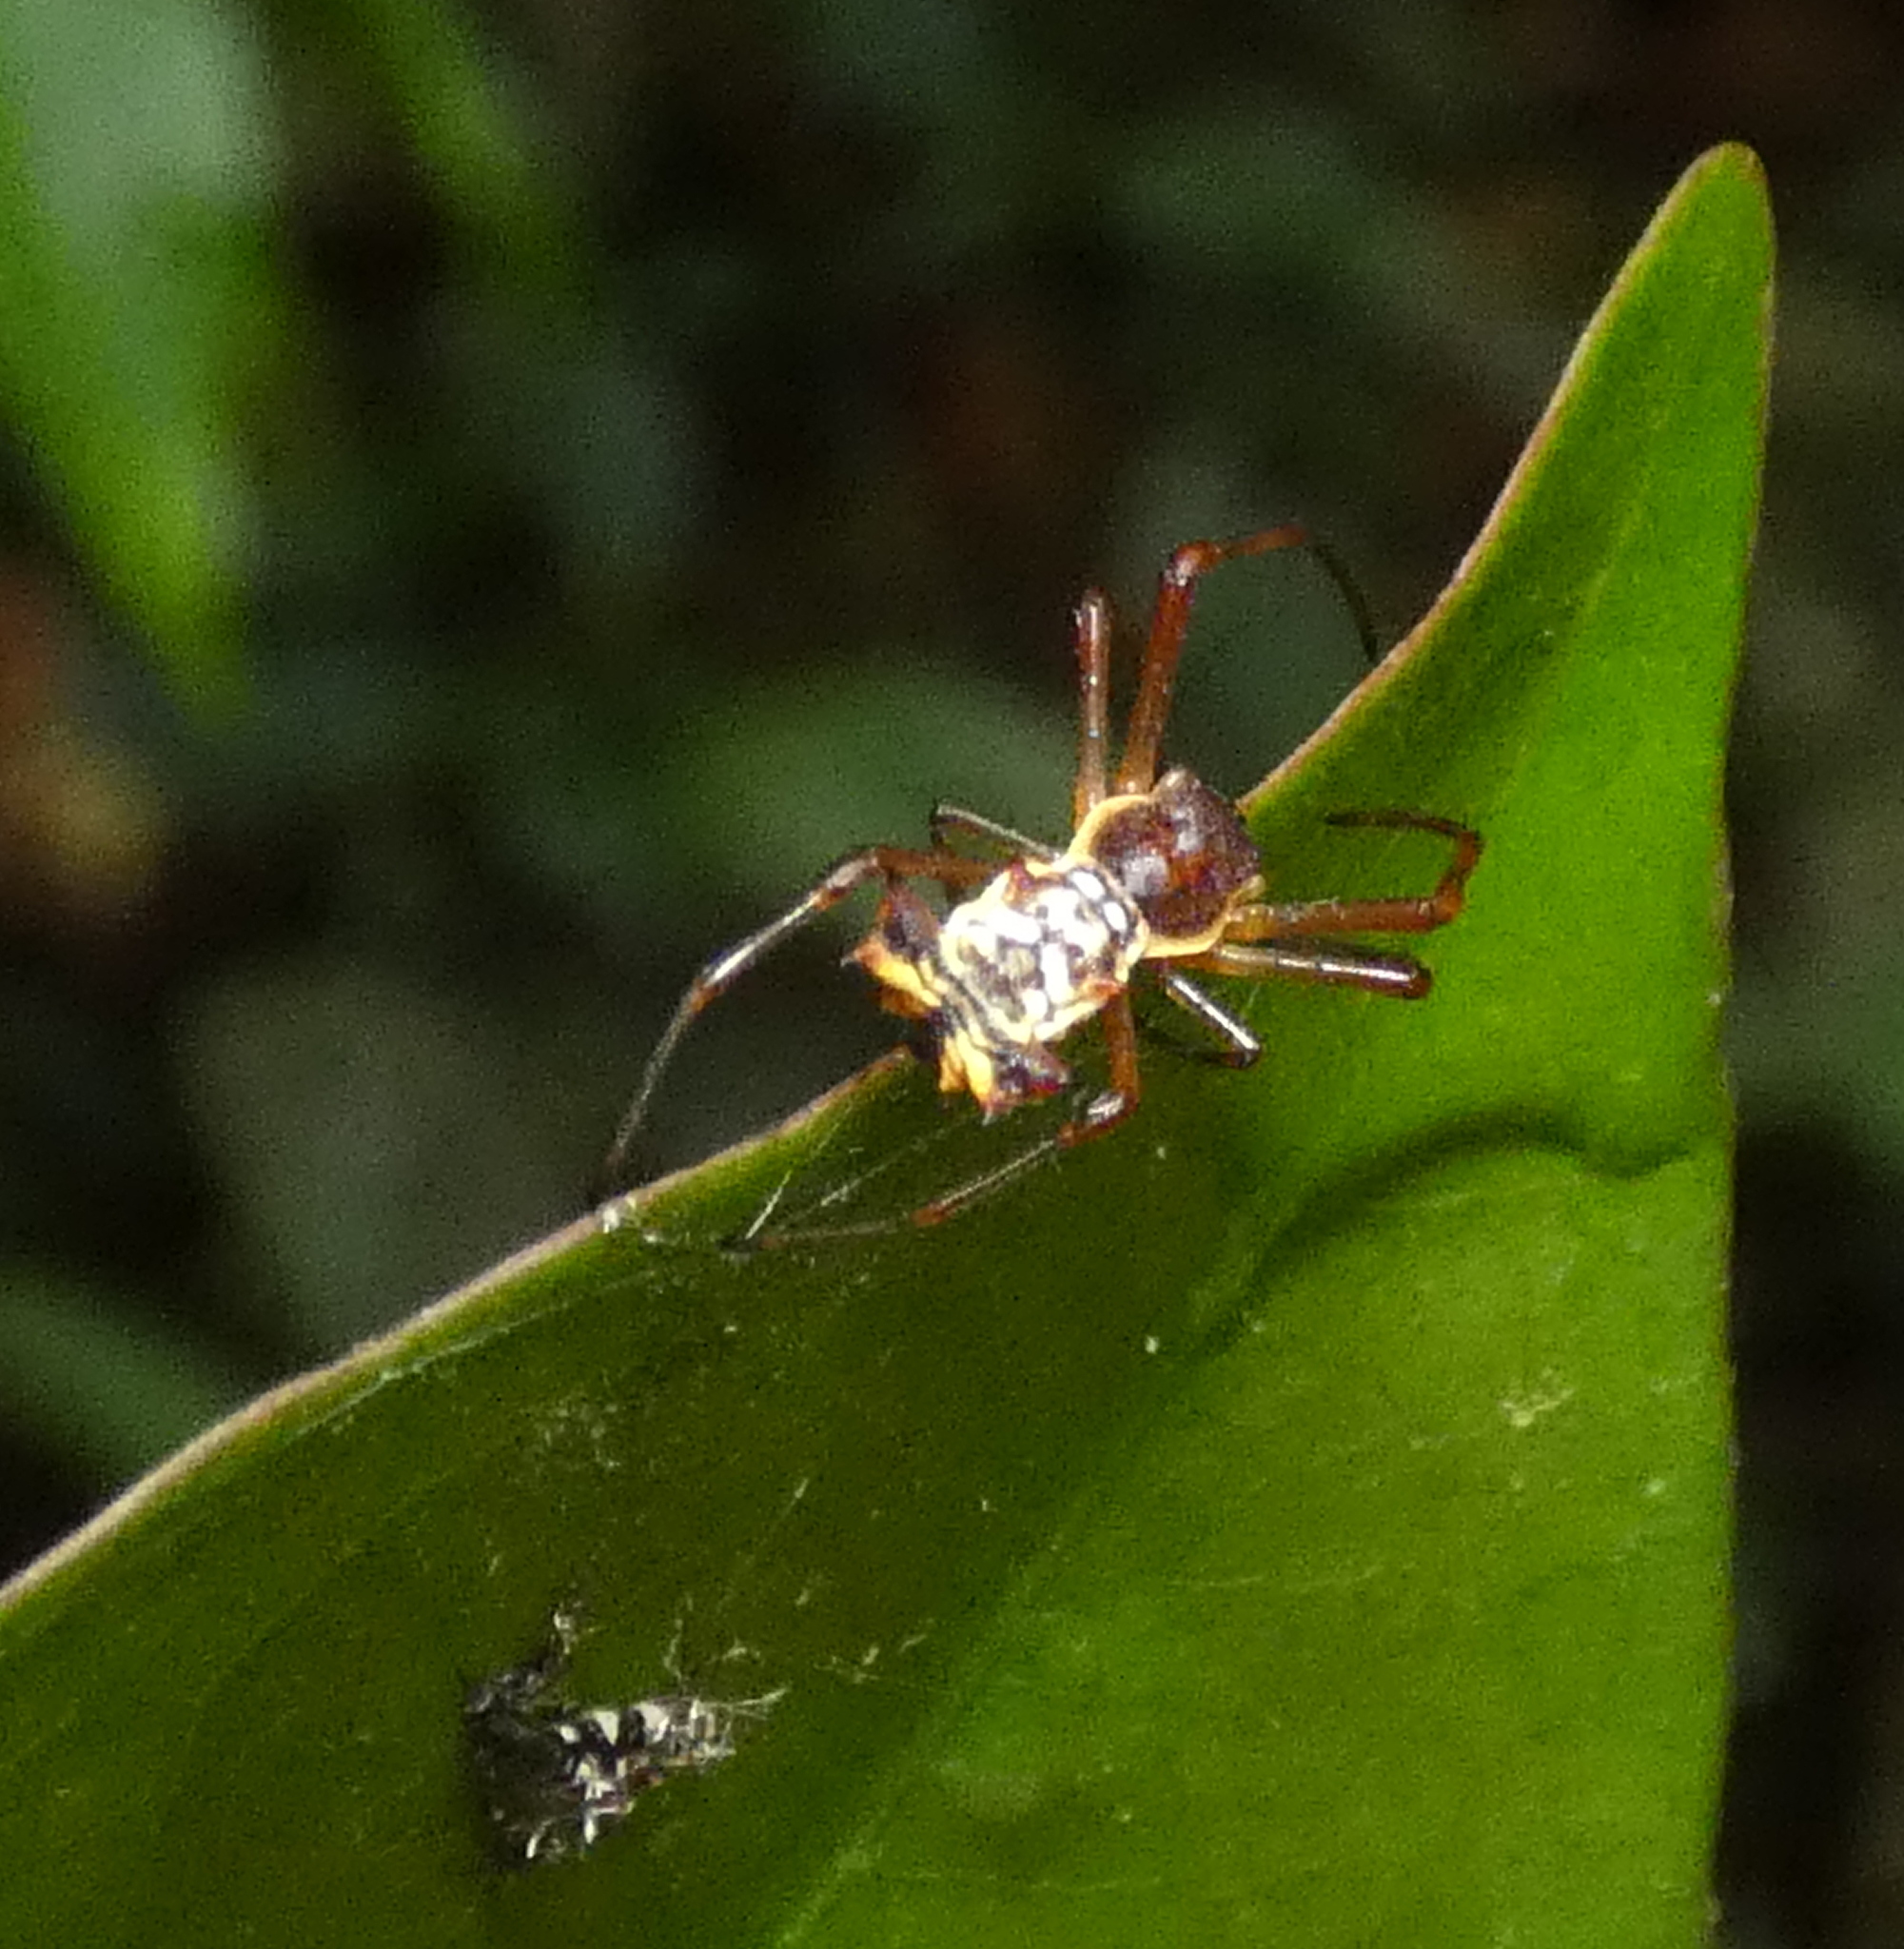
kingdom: Animalia
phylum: Arthropoda
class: Arachnida
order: Araneae
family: Araneidae
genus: Micrathena
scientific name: Micrathena fissispina
